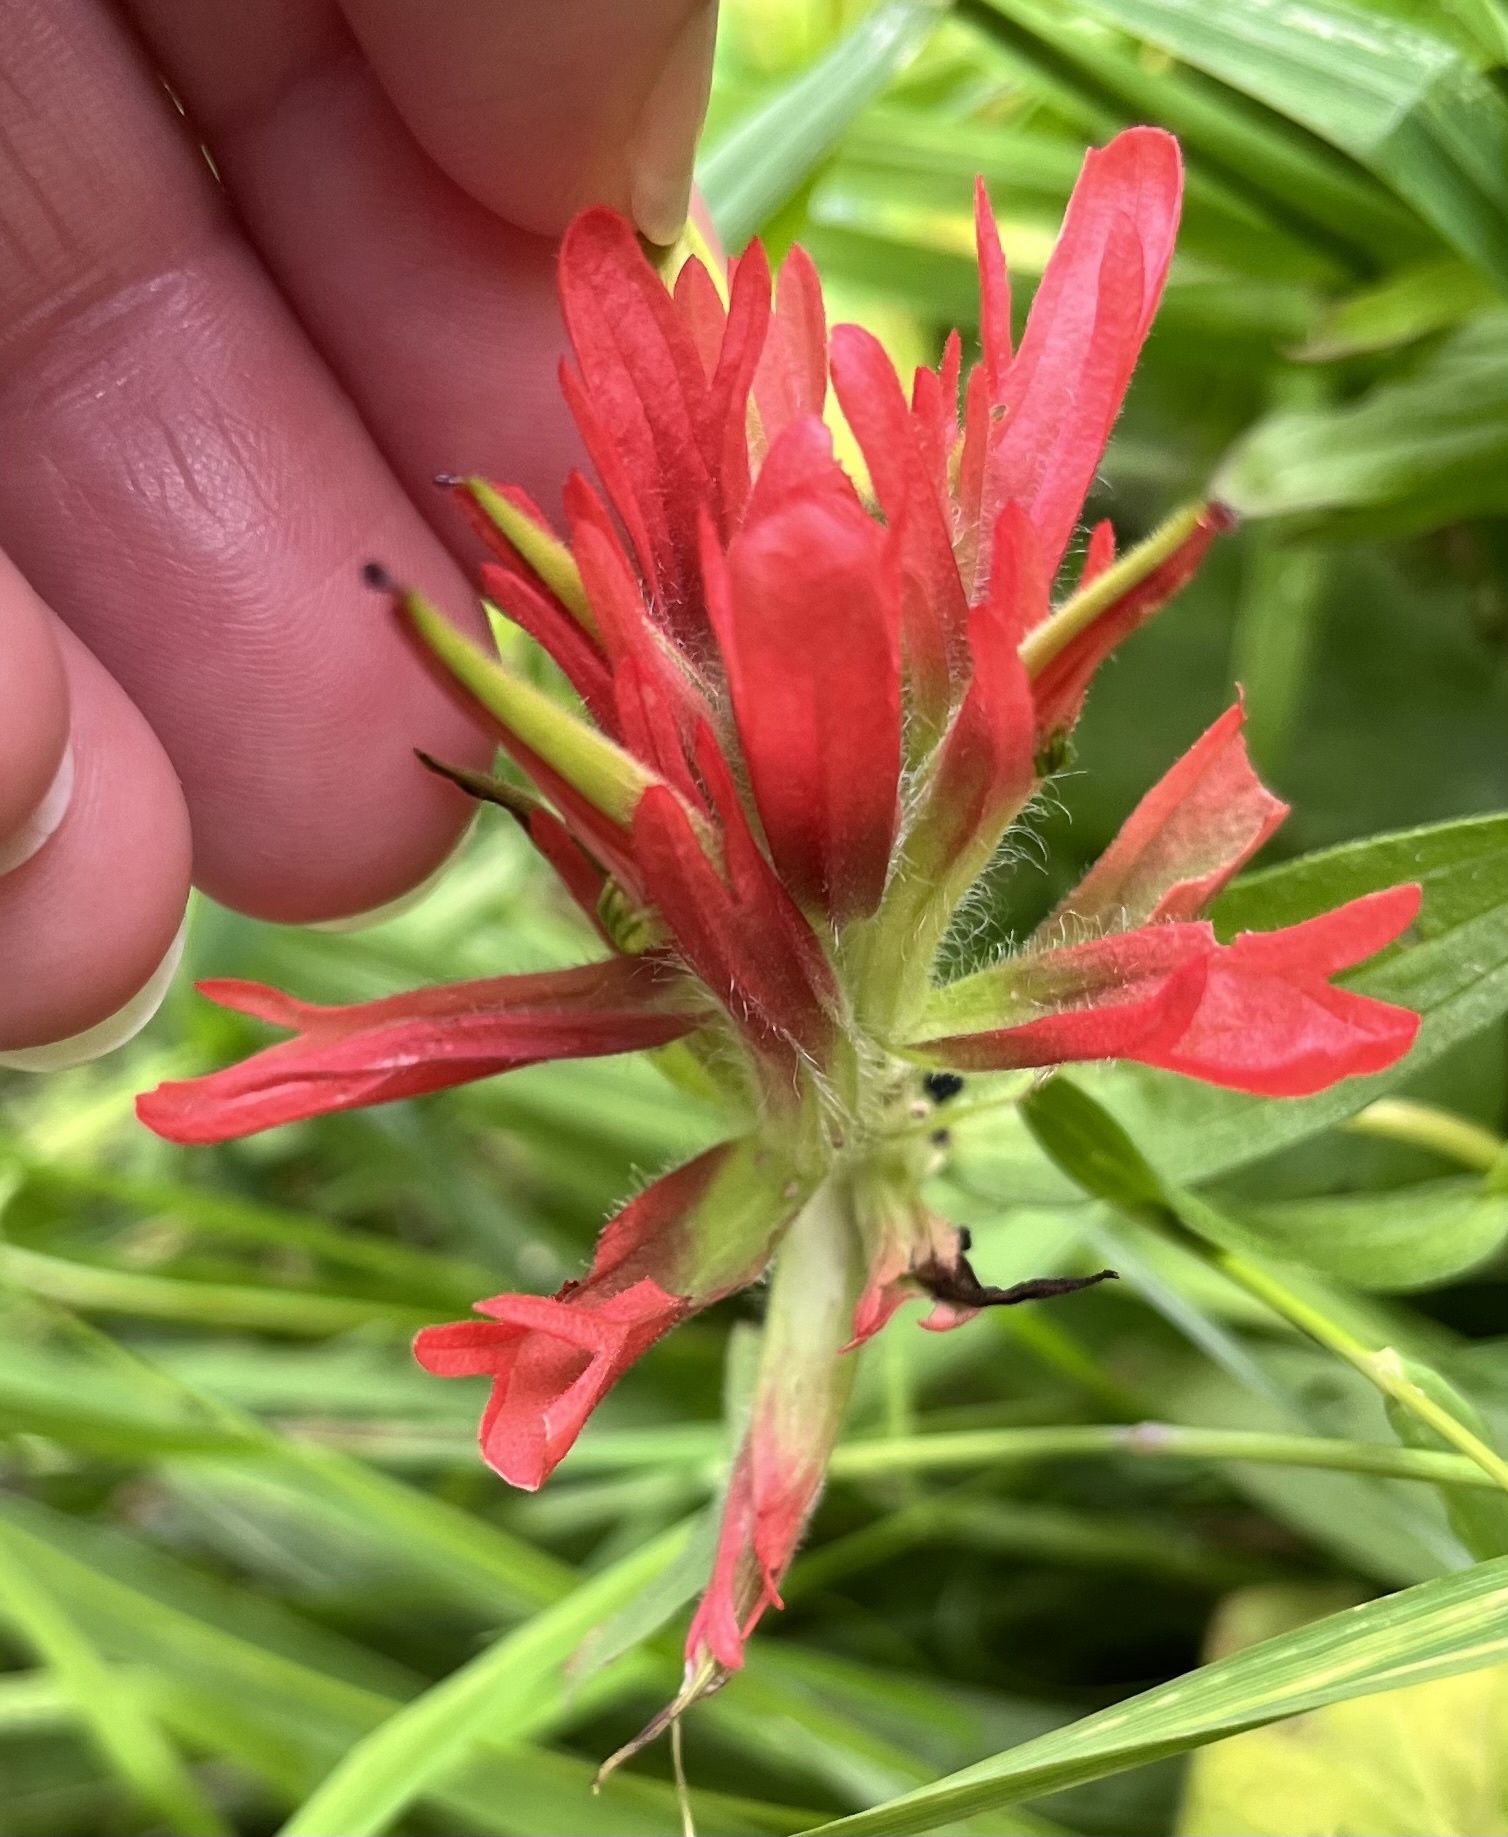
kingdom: Plantae
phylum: Tracheophyta
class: Magnoliopsida
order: Lamiales
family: Orobanchaceae
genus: Castilleja
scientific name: Castilleja miniata
